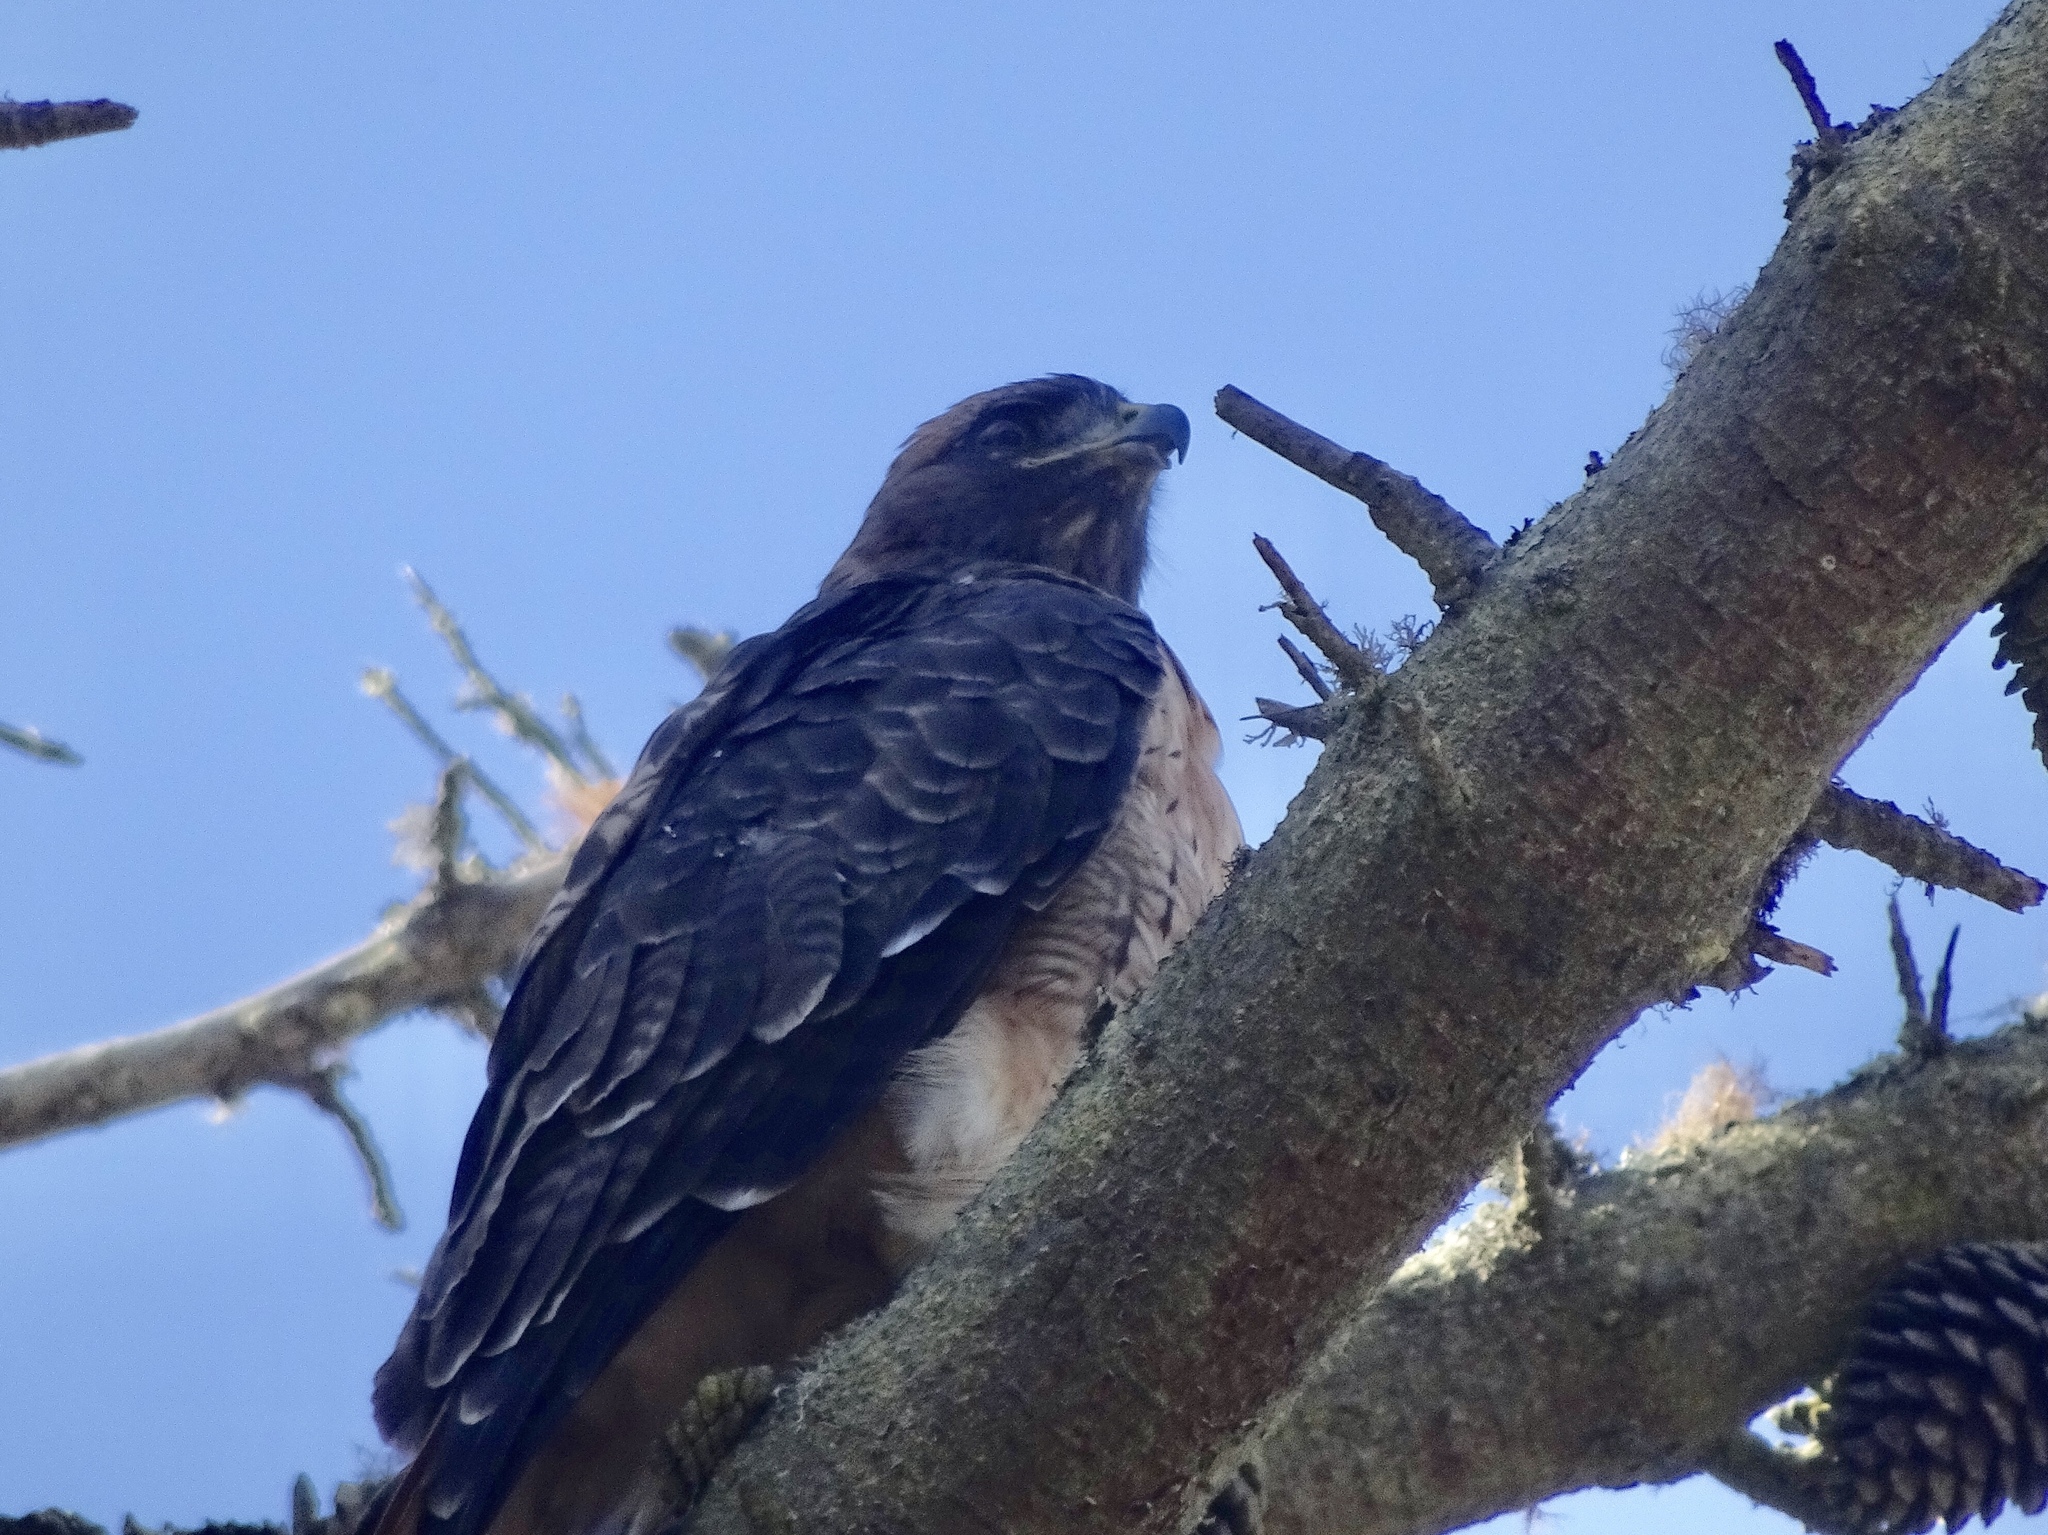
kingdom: Animalia
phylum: Chordata
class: Aves
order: Accipitriformes
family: Accipitridae
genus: Buteo
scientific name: Buteo jamaicensis
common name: Red-tailed hawk
